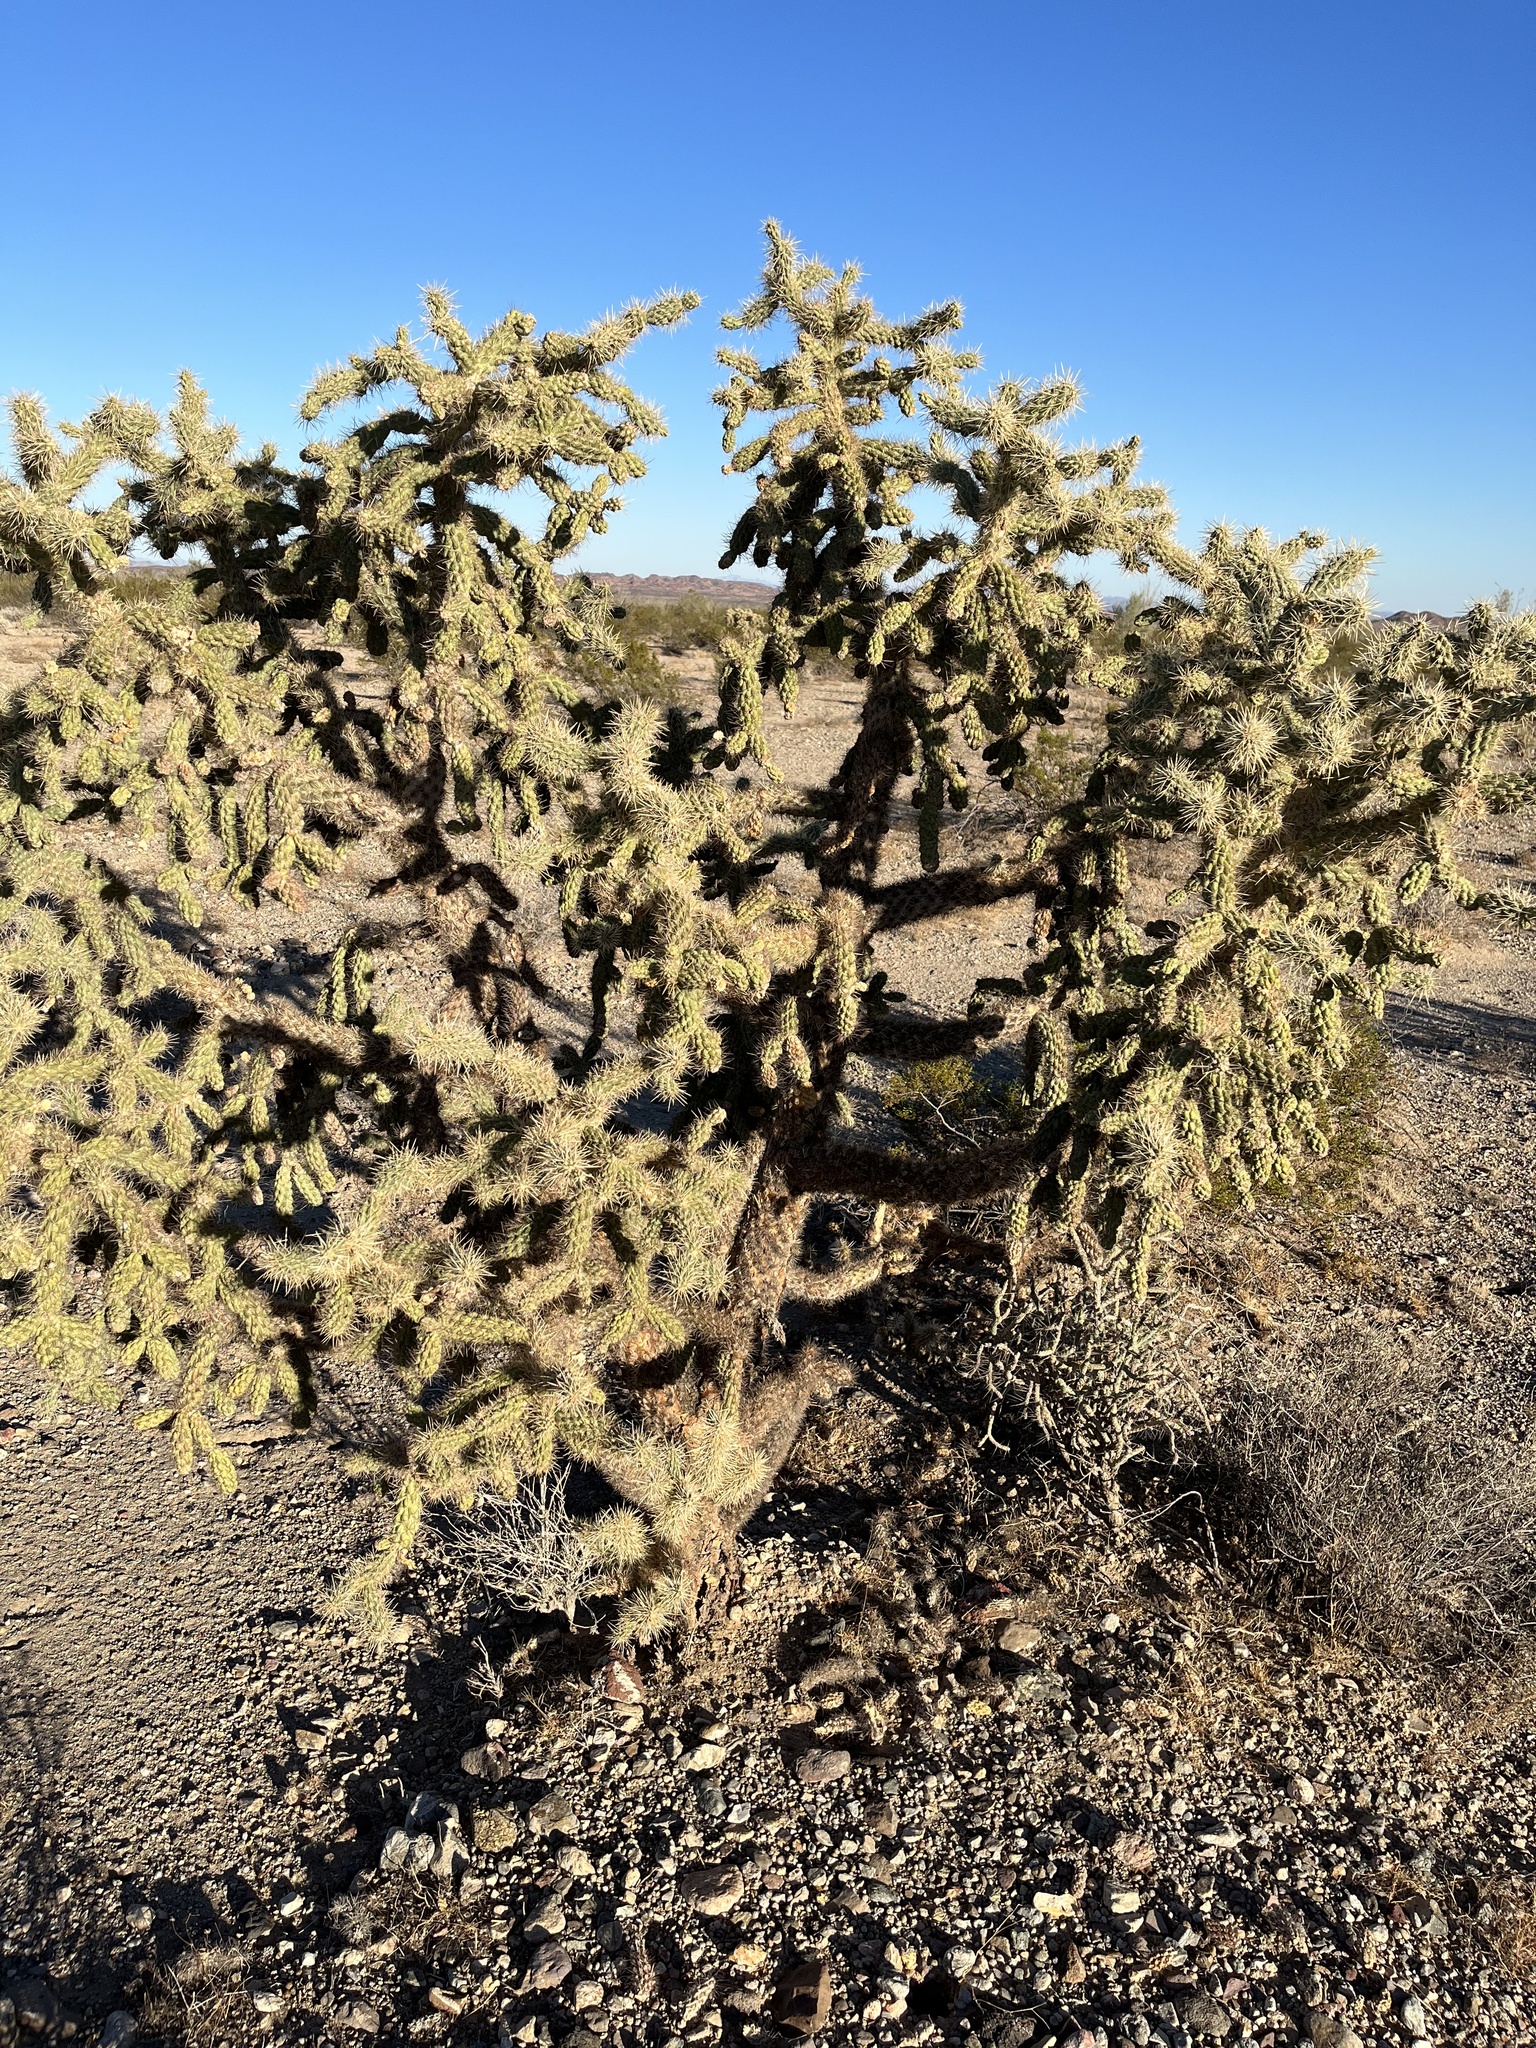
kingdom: Plantae
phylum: Tracheophyta
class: Magnoliopsida
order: Caryophyllales
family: Cactaceae
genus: Cylindropuntia
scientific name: Cylindropuntia munzii
